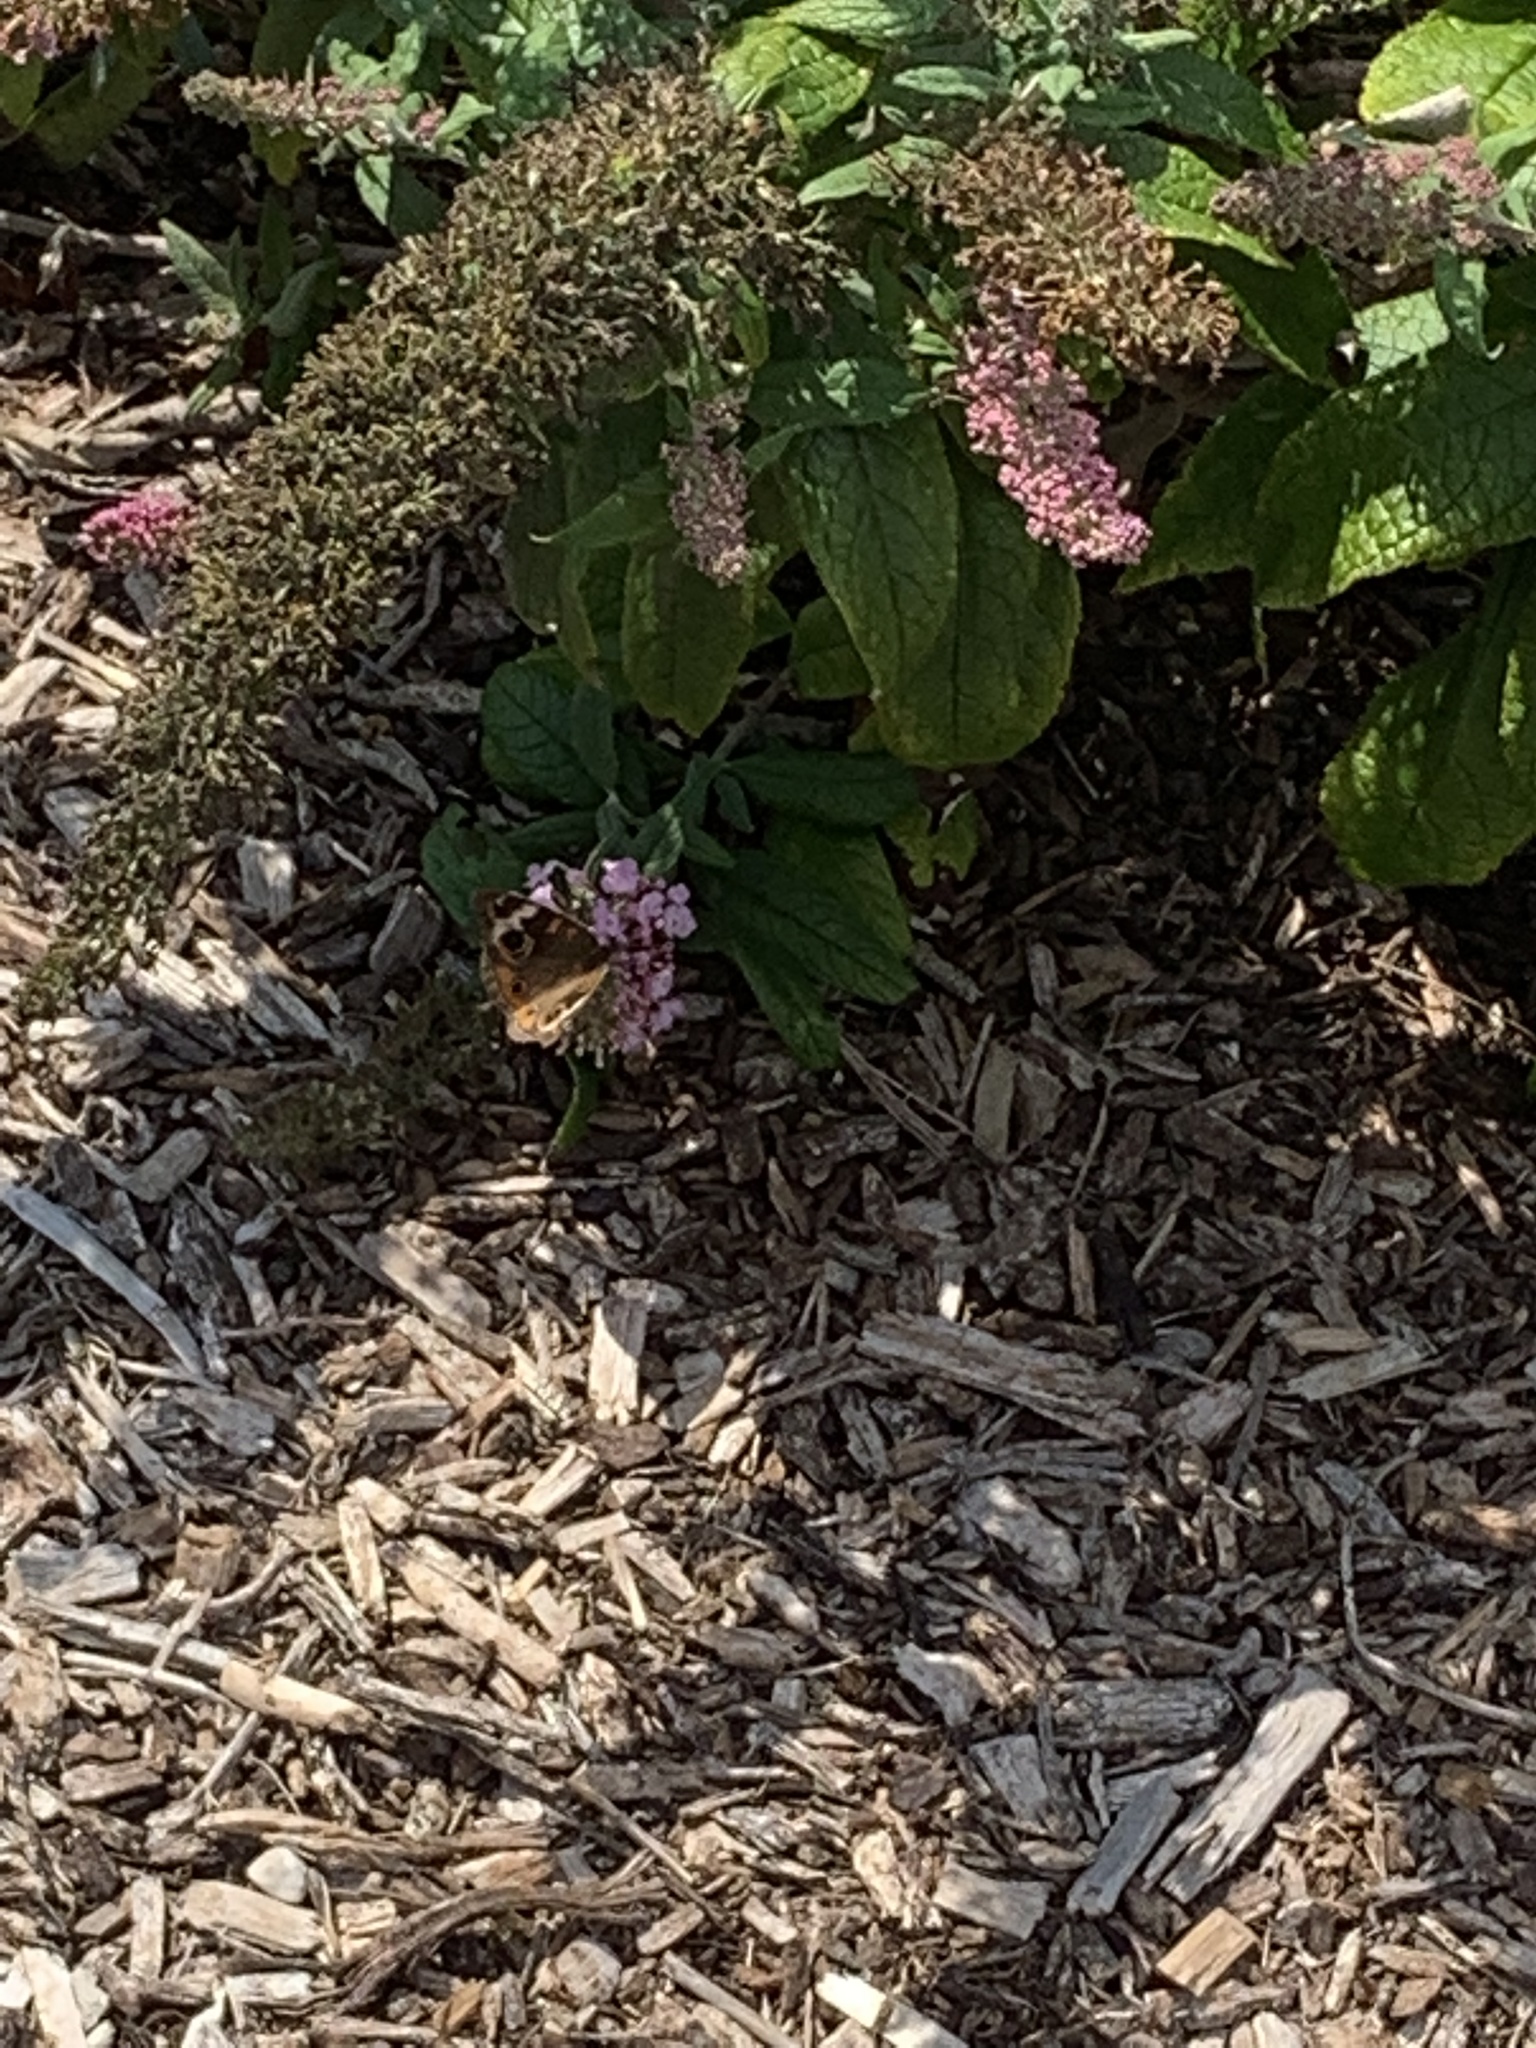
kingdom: Animalia
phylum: Arthropoda
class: Insecta
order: Lepidoptera
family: Nymphalidae
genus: Junonia
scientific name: Junonia coenia
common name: Common buckeye
